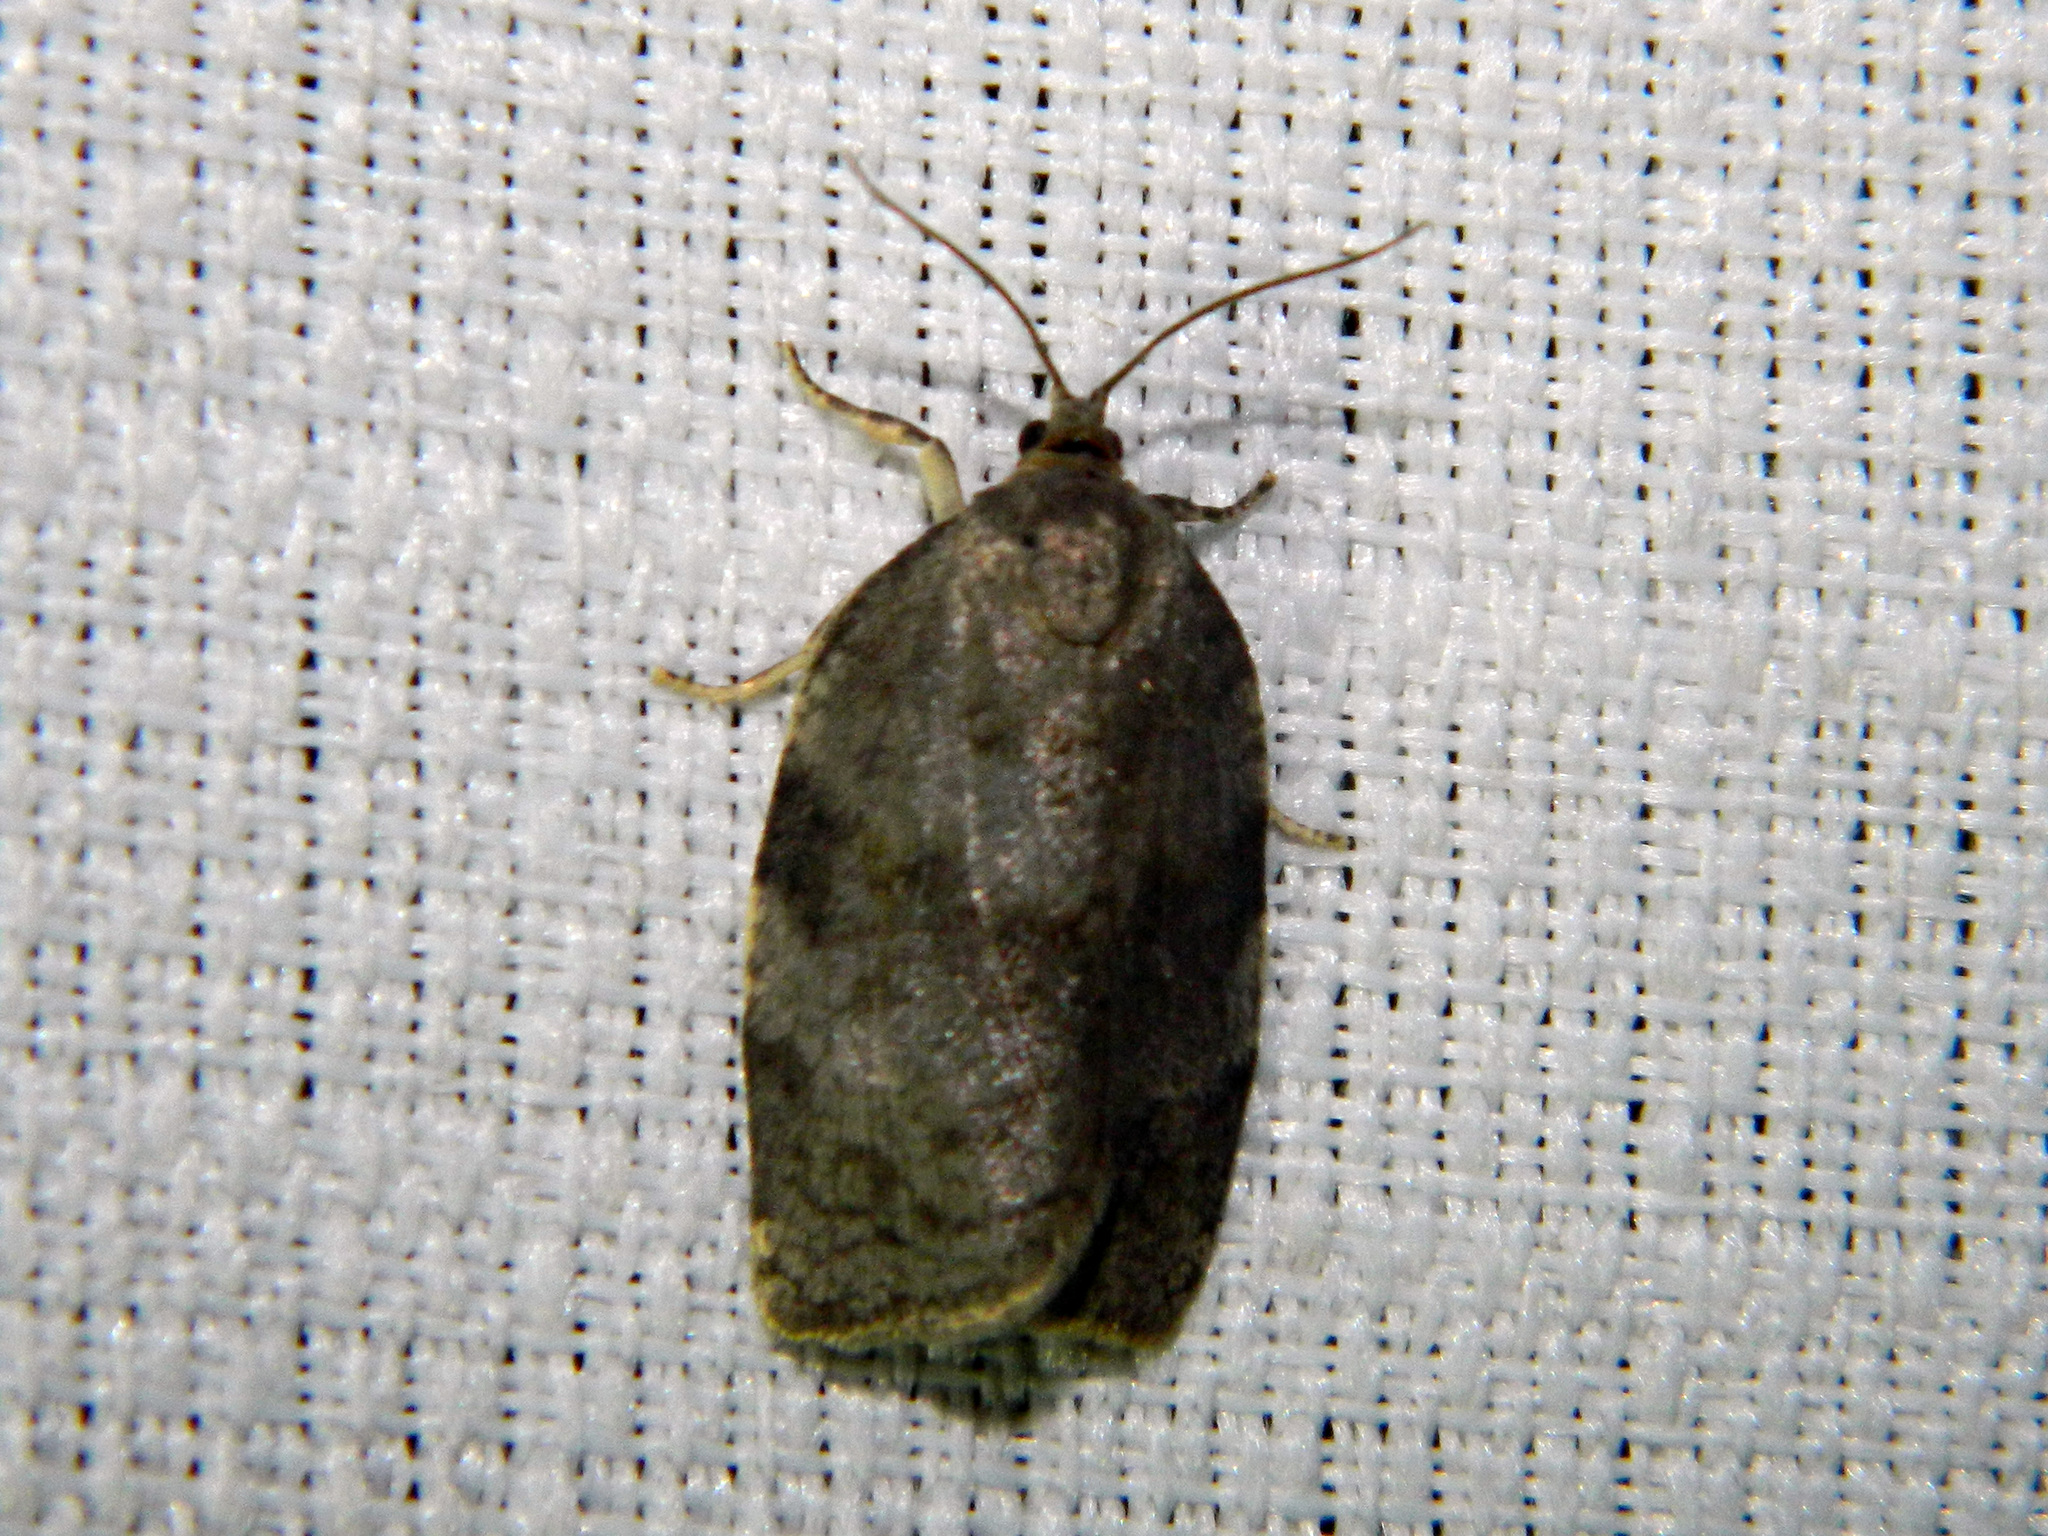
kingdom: Animalia
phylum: Arthropoda
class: Insecta
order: Lepidoptera
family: Tortricidae
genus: Choristoneura
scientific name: Choristoneura conflictana
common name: Large aspen tortrix
